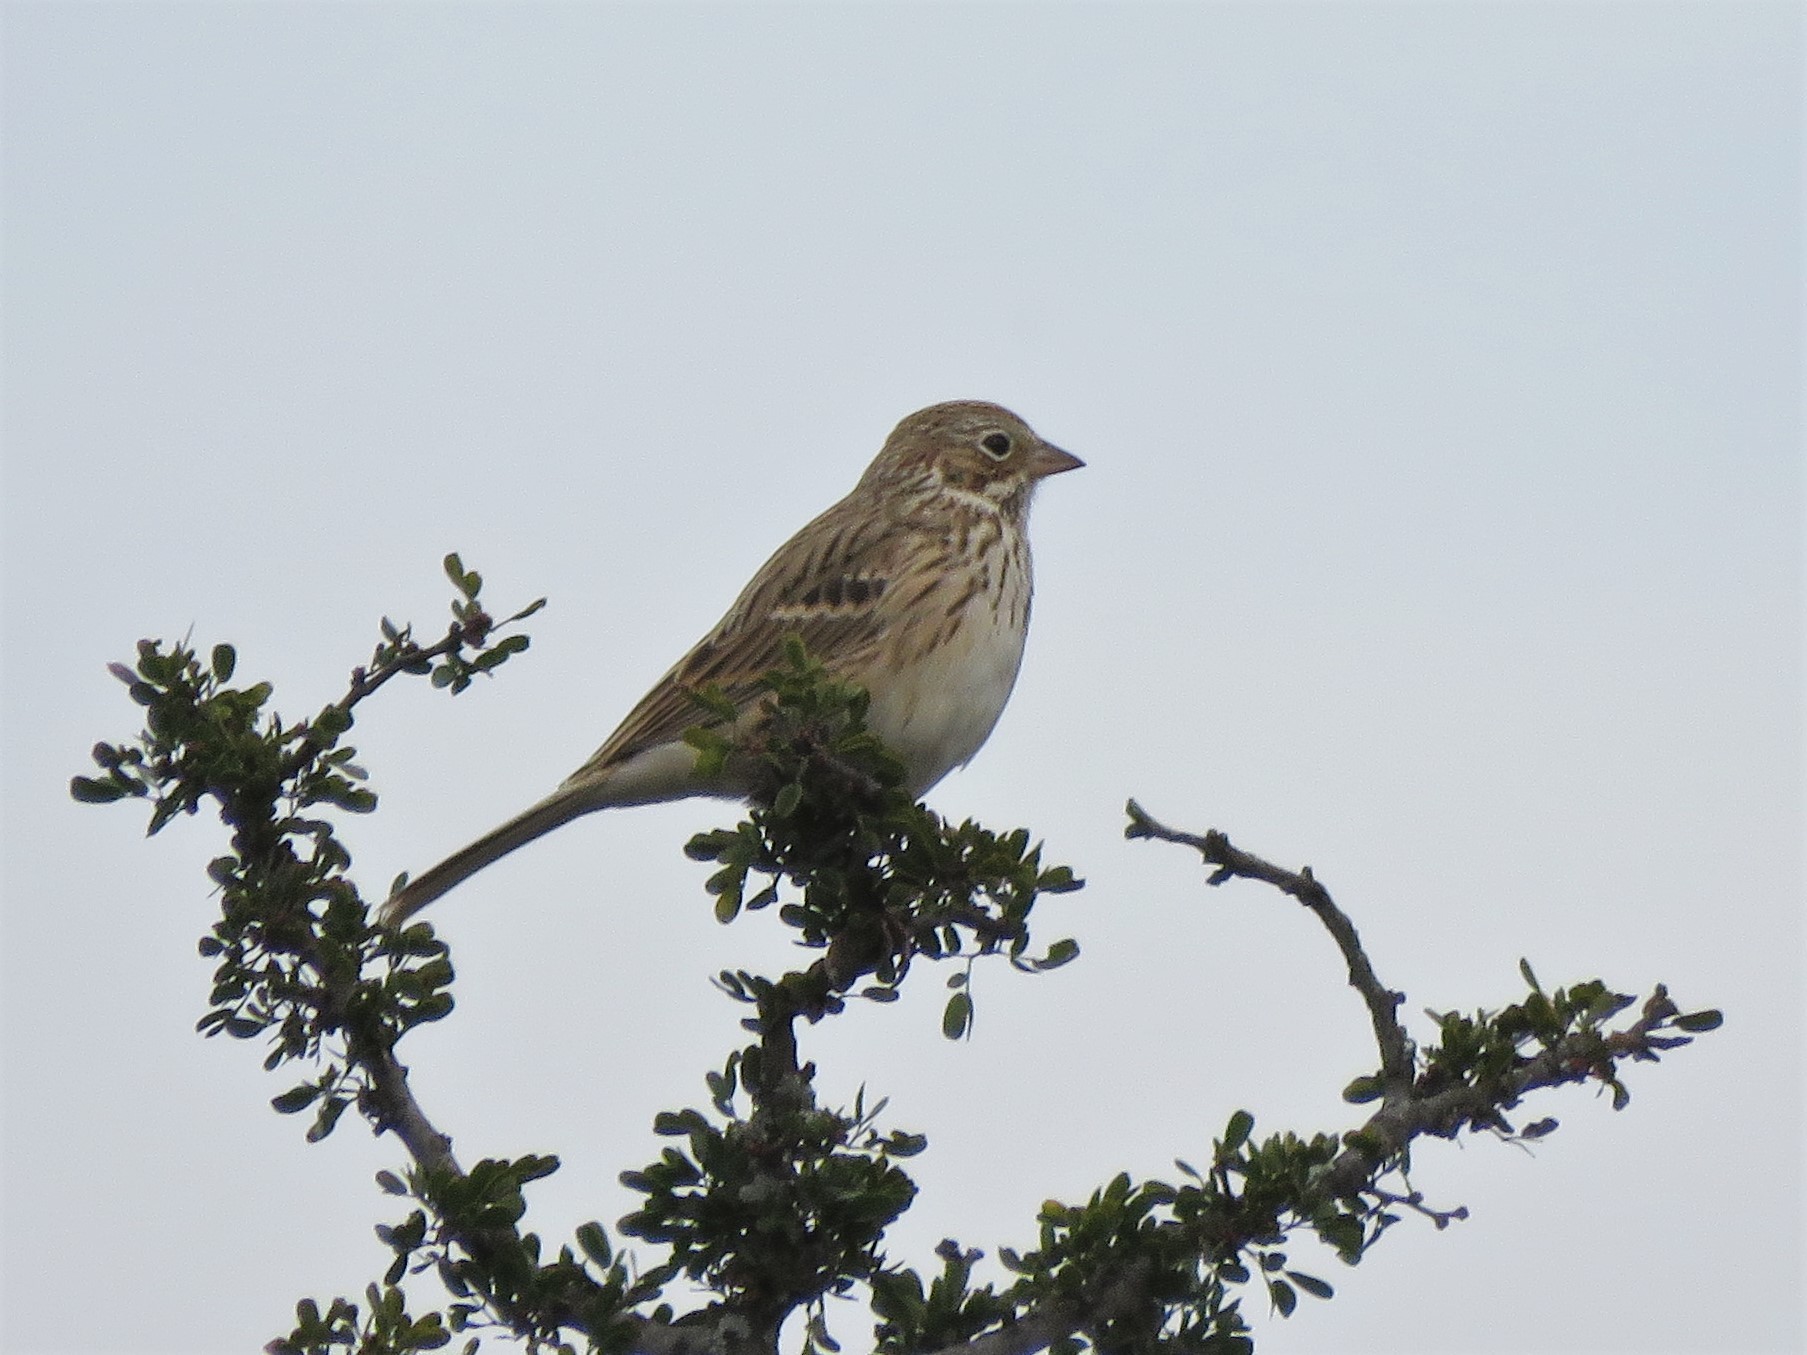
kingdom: Animalia
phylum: Chordata
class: Aves
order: Passeriformes
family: Passerellidae
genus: Pooecetes
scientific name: Pooecetes gramineus
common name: Vesper sparrow
